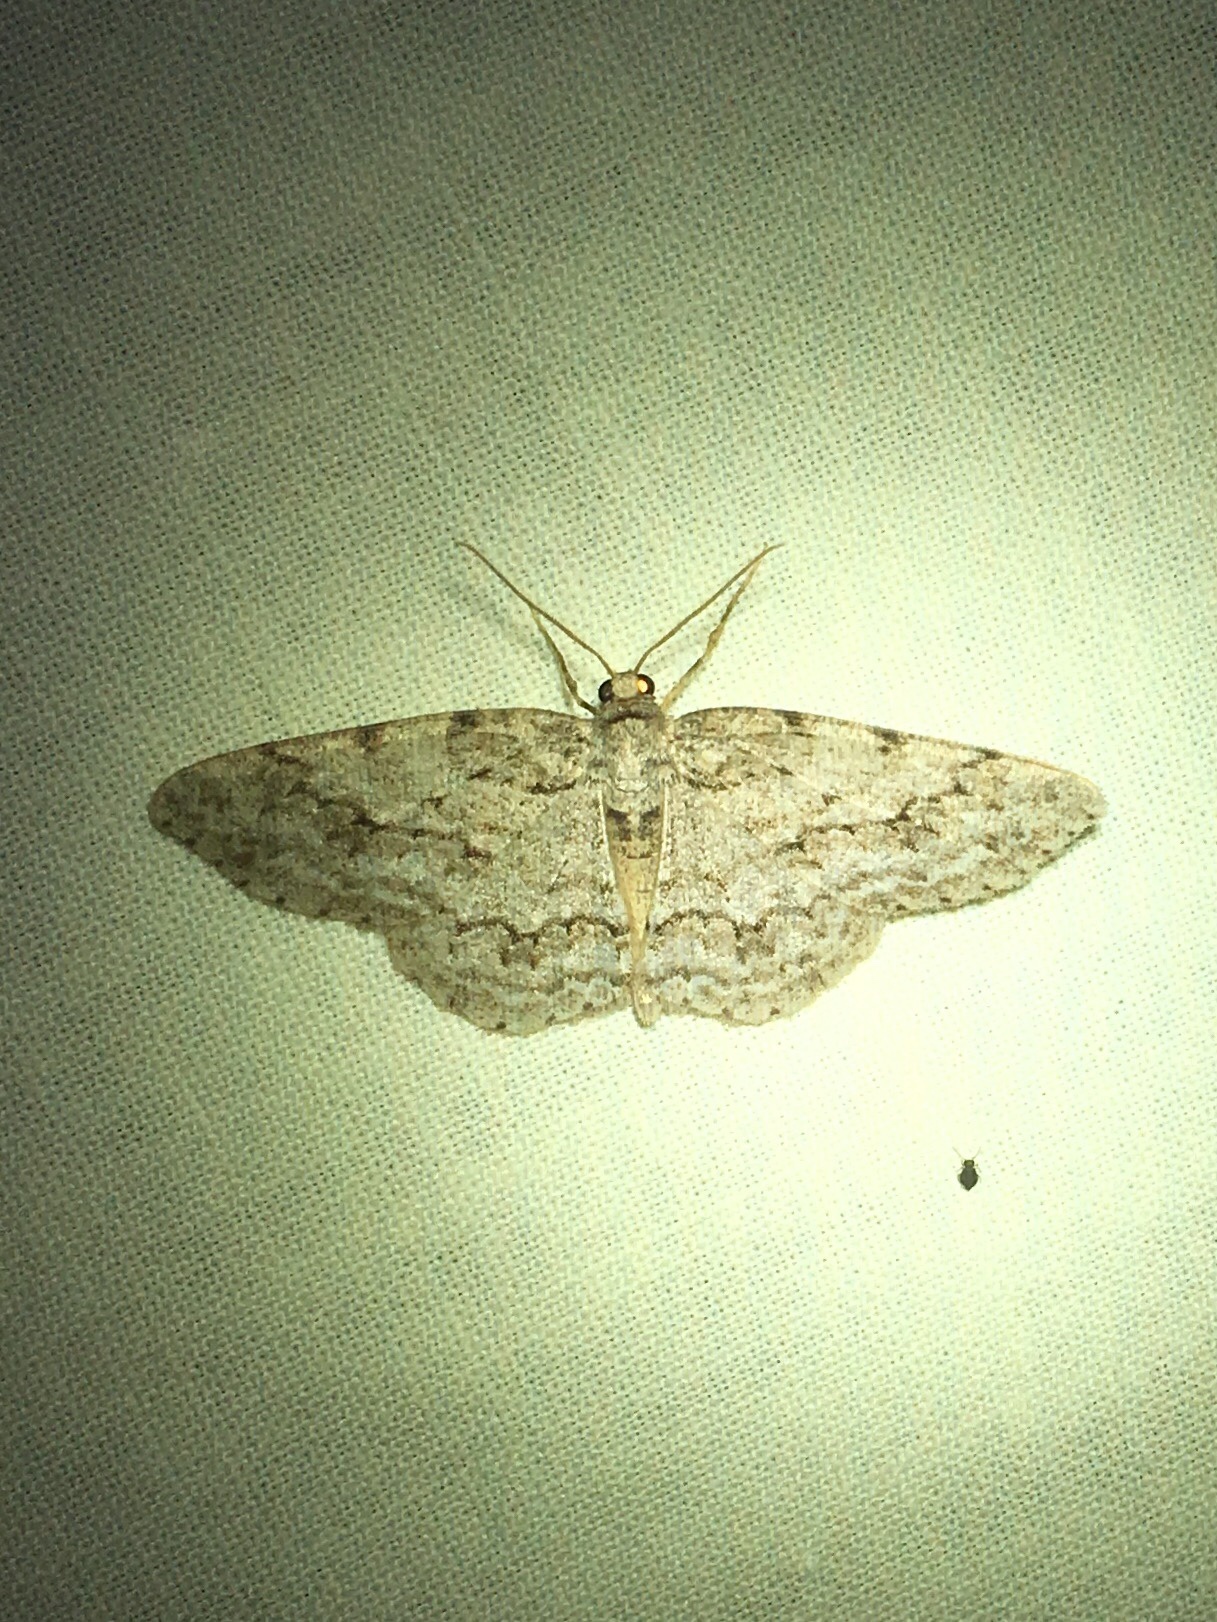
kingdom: Animalia
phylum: Arthropoda
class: Insecta
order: Lepidoptera
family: Geometridae
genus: Ectropis
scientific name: Ectropis crepuscularia
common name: Engrailed
